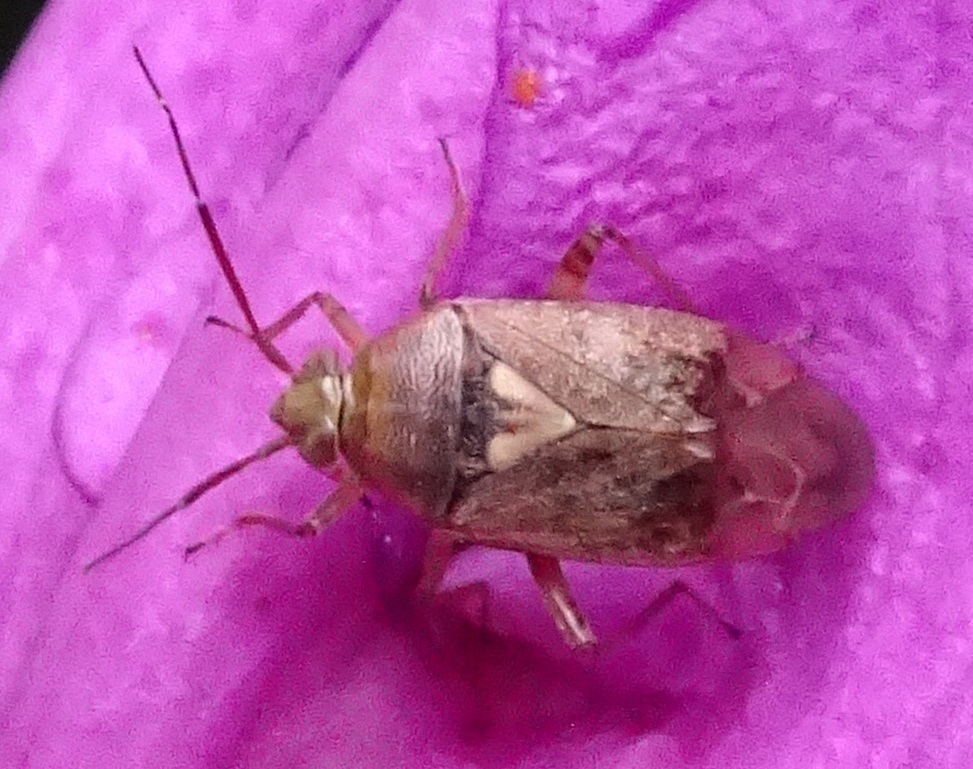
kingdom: Animalia
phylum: Arthropoda
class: Insecta
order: Hemiptera
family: Miridae
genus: Lygus
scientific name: Lygus rugulipennis
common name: European tarnished plant bug
